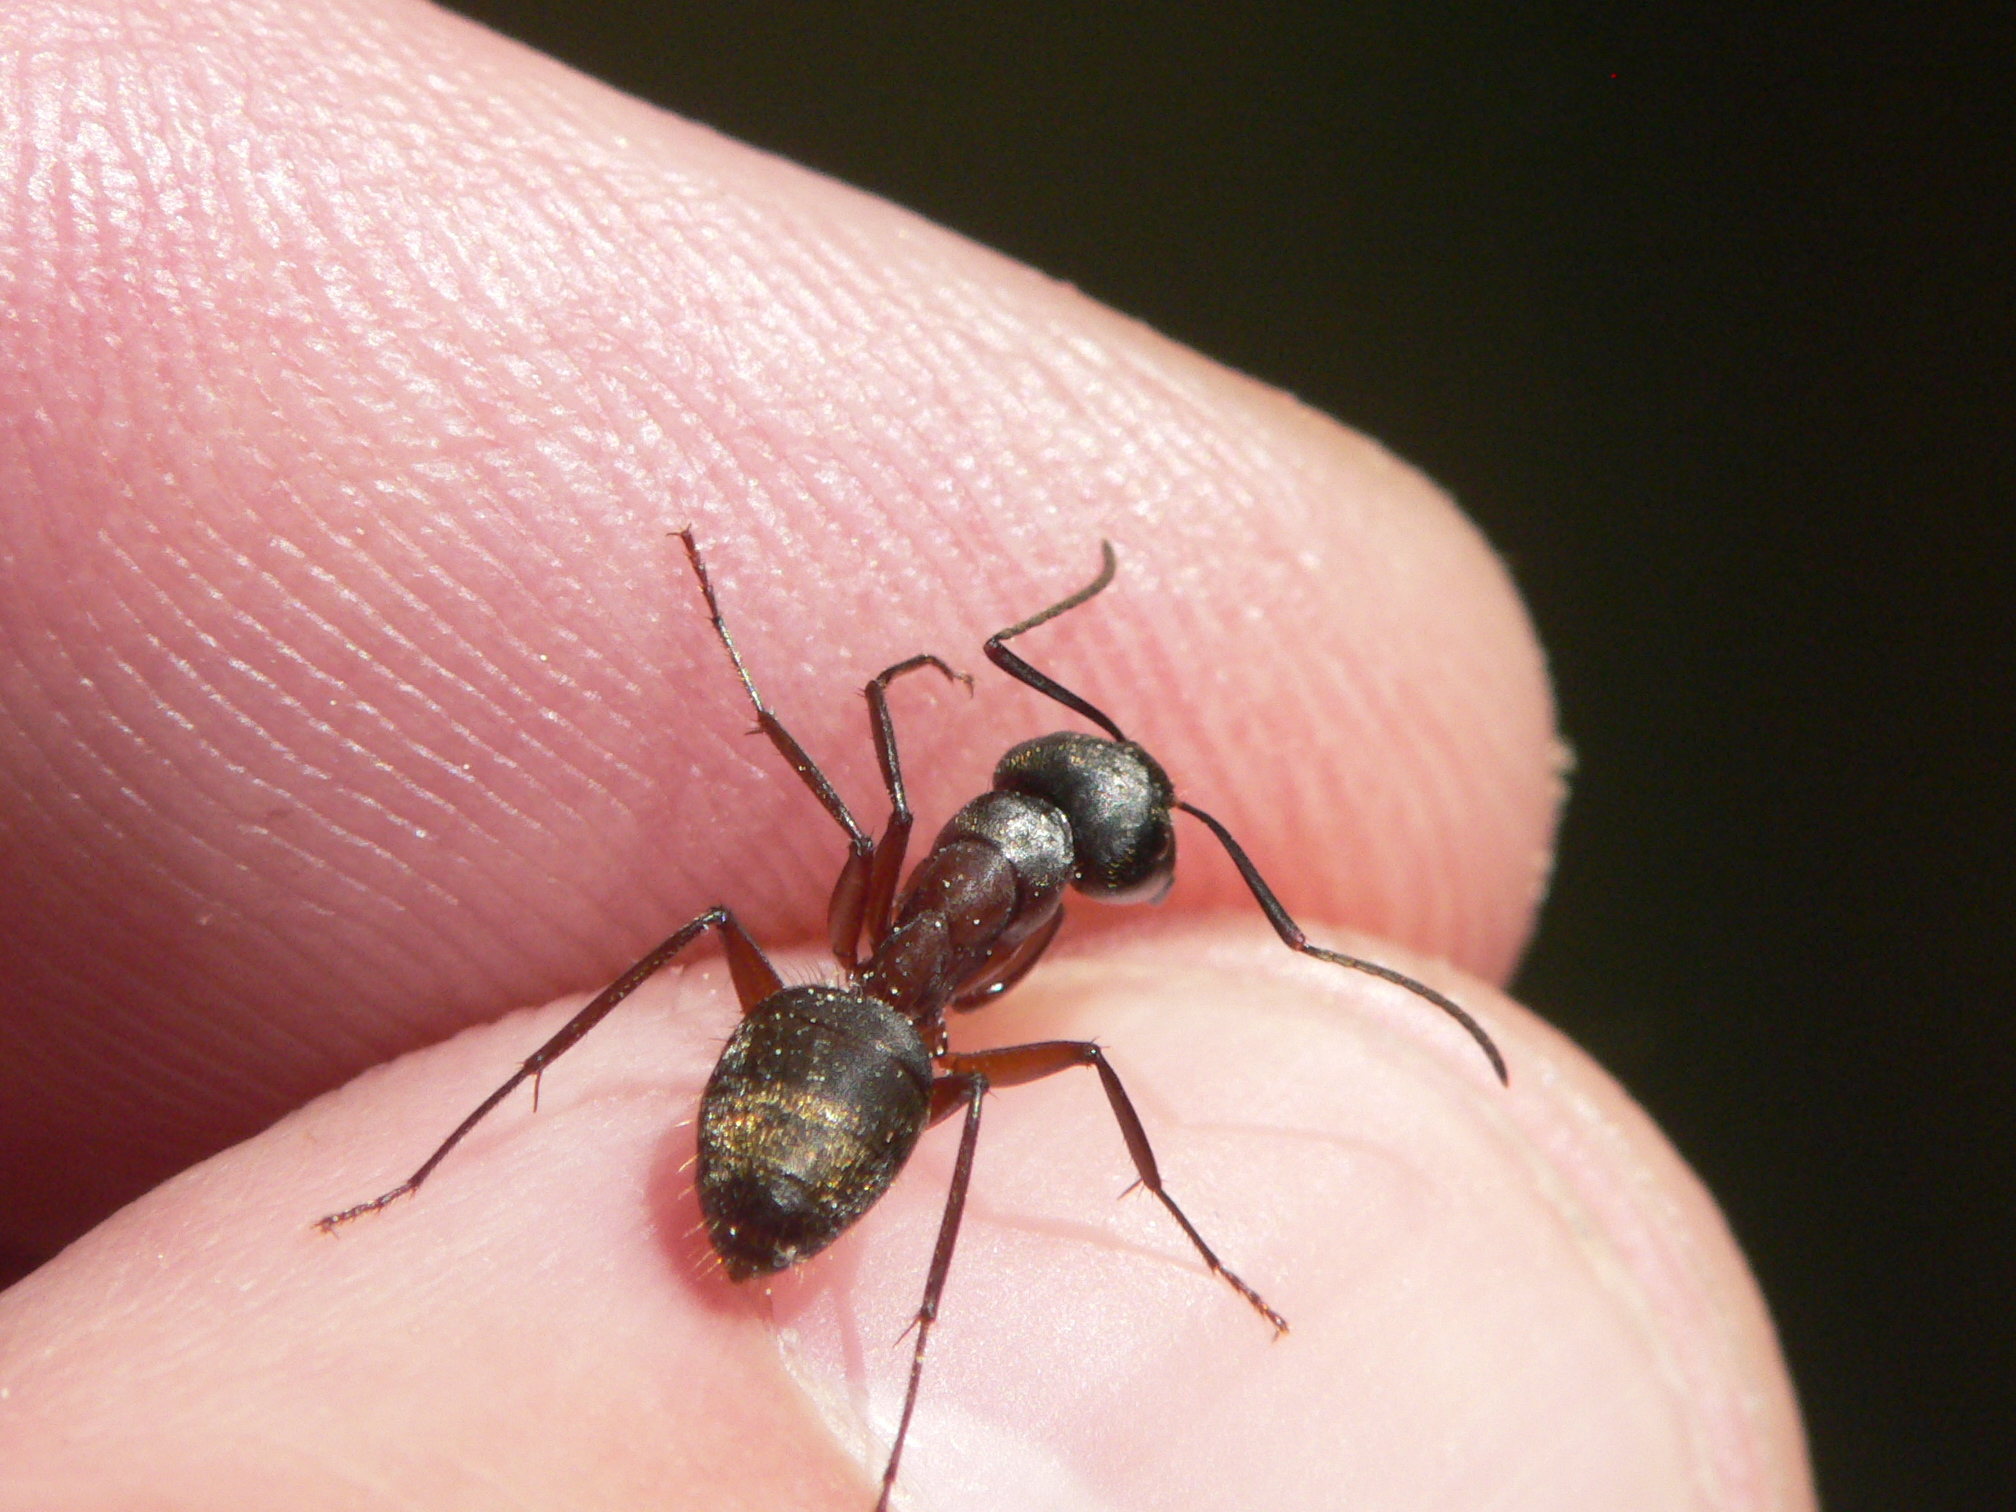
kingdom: Animalia
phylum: Arthropoda
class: Insecta
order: Hymenoptera
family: Formicidae
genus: Camponotus
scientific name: Camponotus chromaiodes
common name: Red carpenter ant
